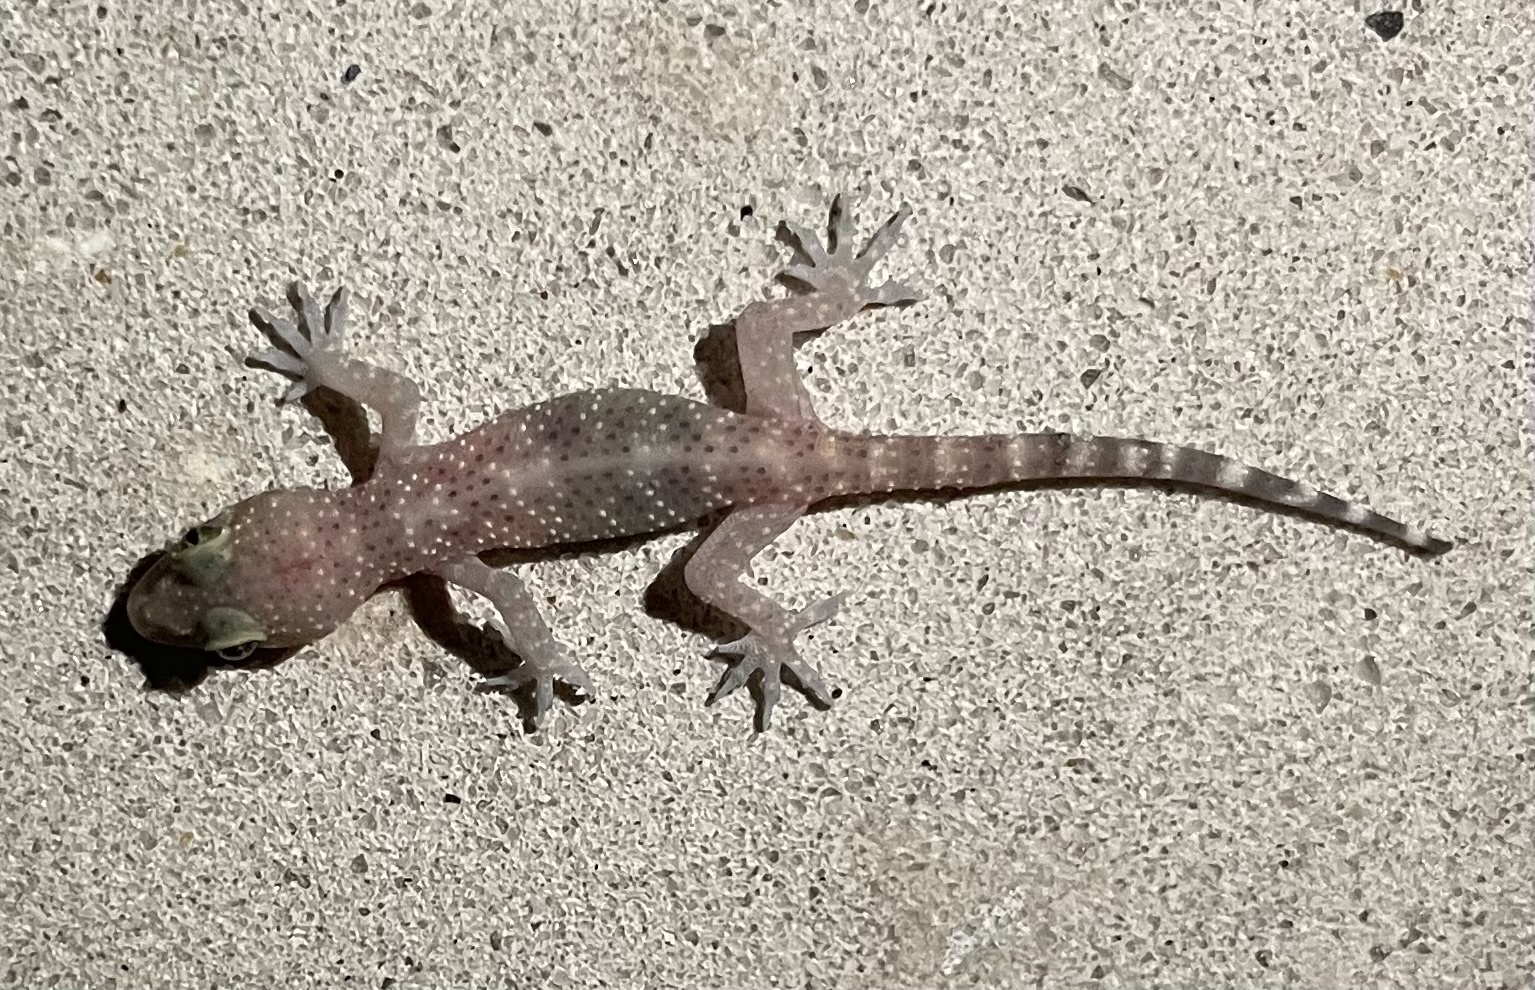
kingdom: Animalia
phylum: Chordata
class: Squamata
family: Gekkonidae
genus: Hemidactylus
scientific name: Hemidactylus turcicus
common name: Turkish gecko
